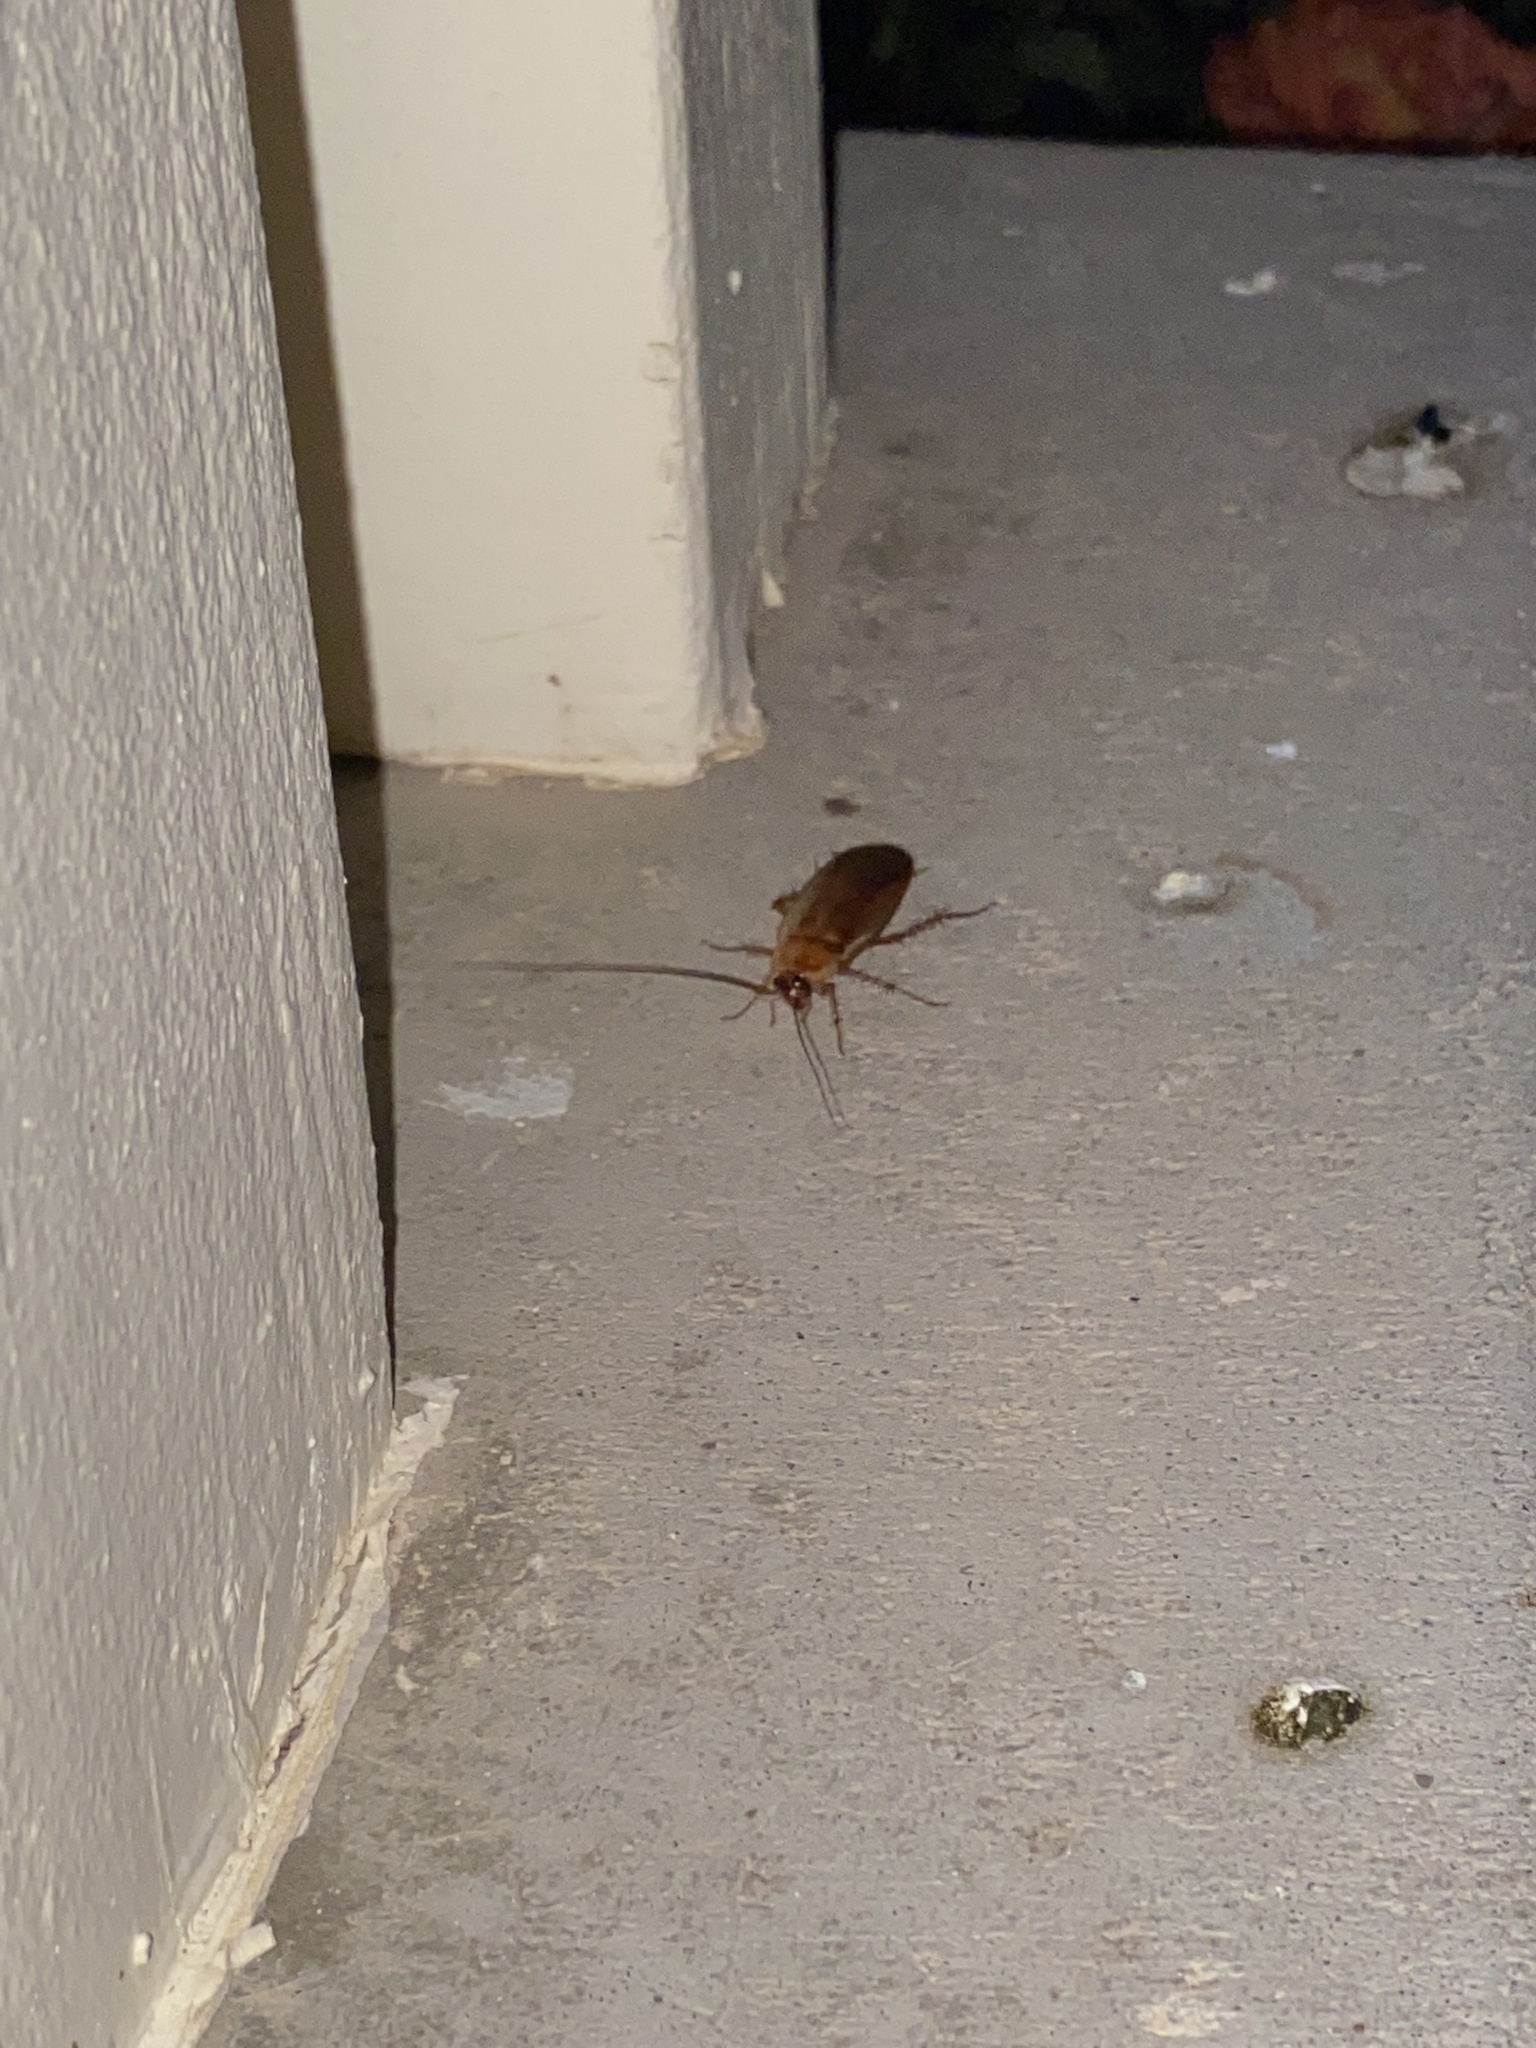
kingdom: Animalia
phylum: Arthropoda
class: Insecta
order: Blattodea
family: Blattidae
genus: Periplaneta
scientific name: Periplaneta lateralis
